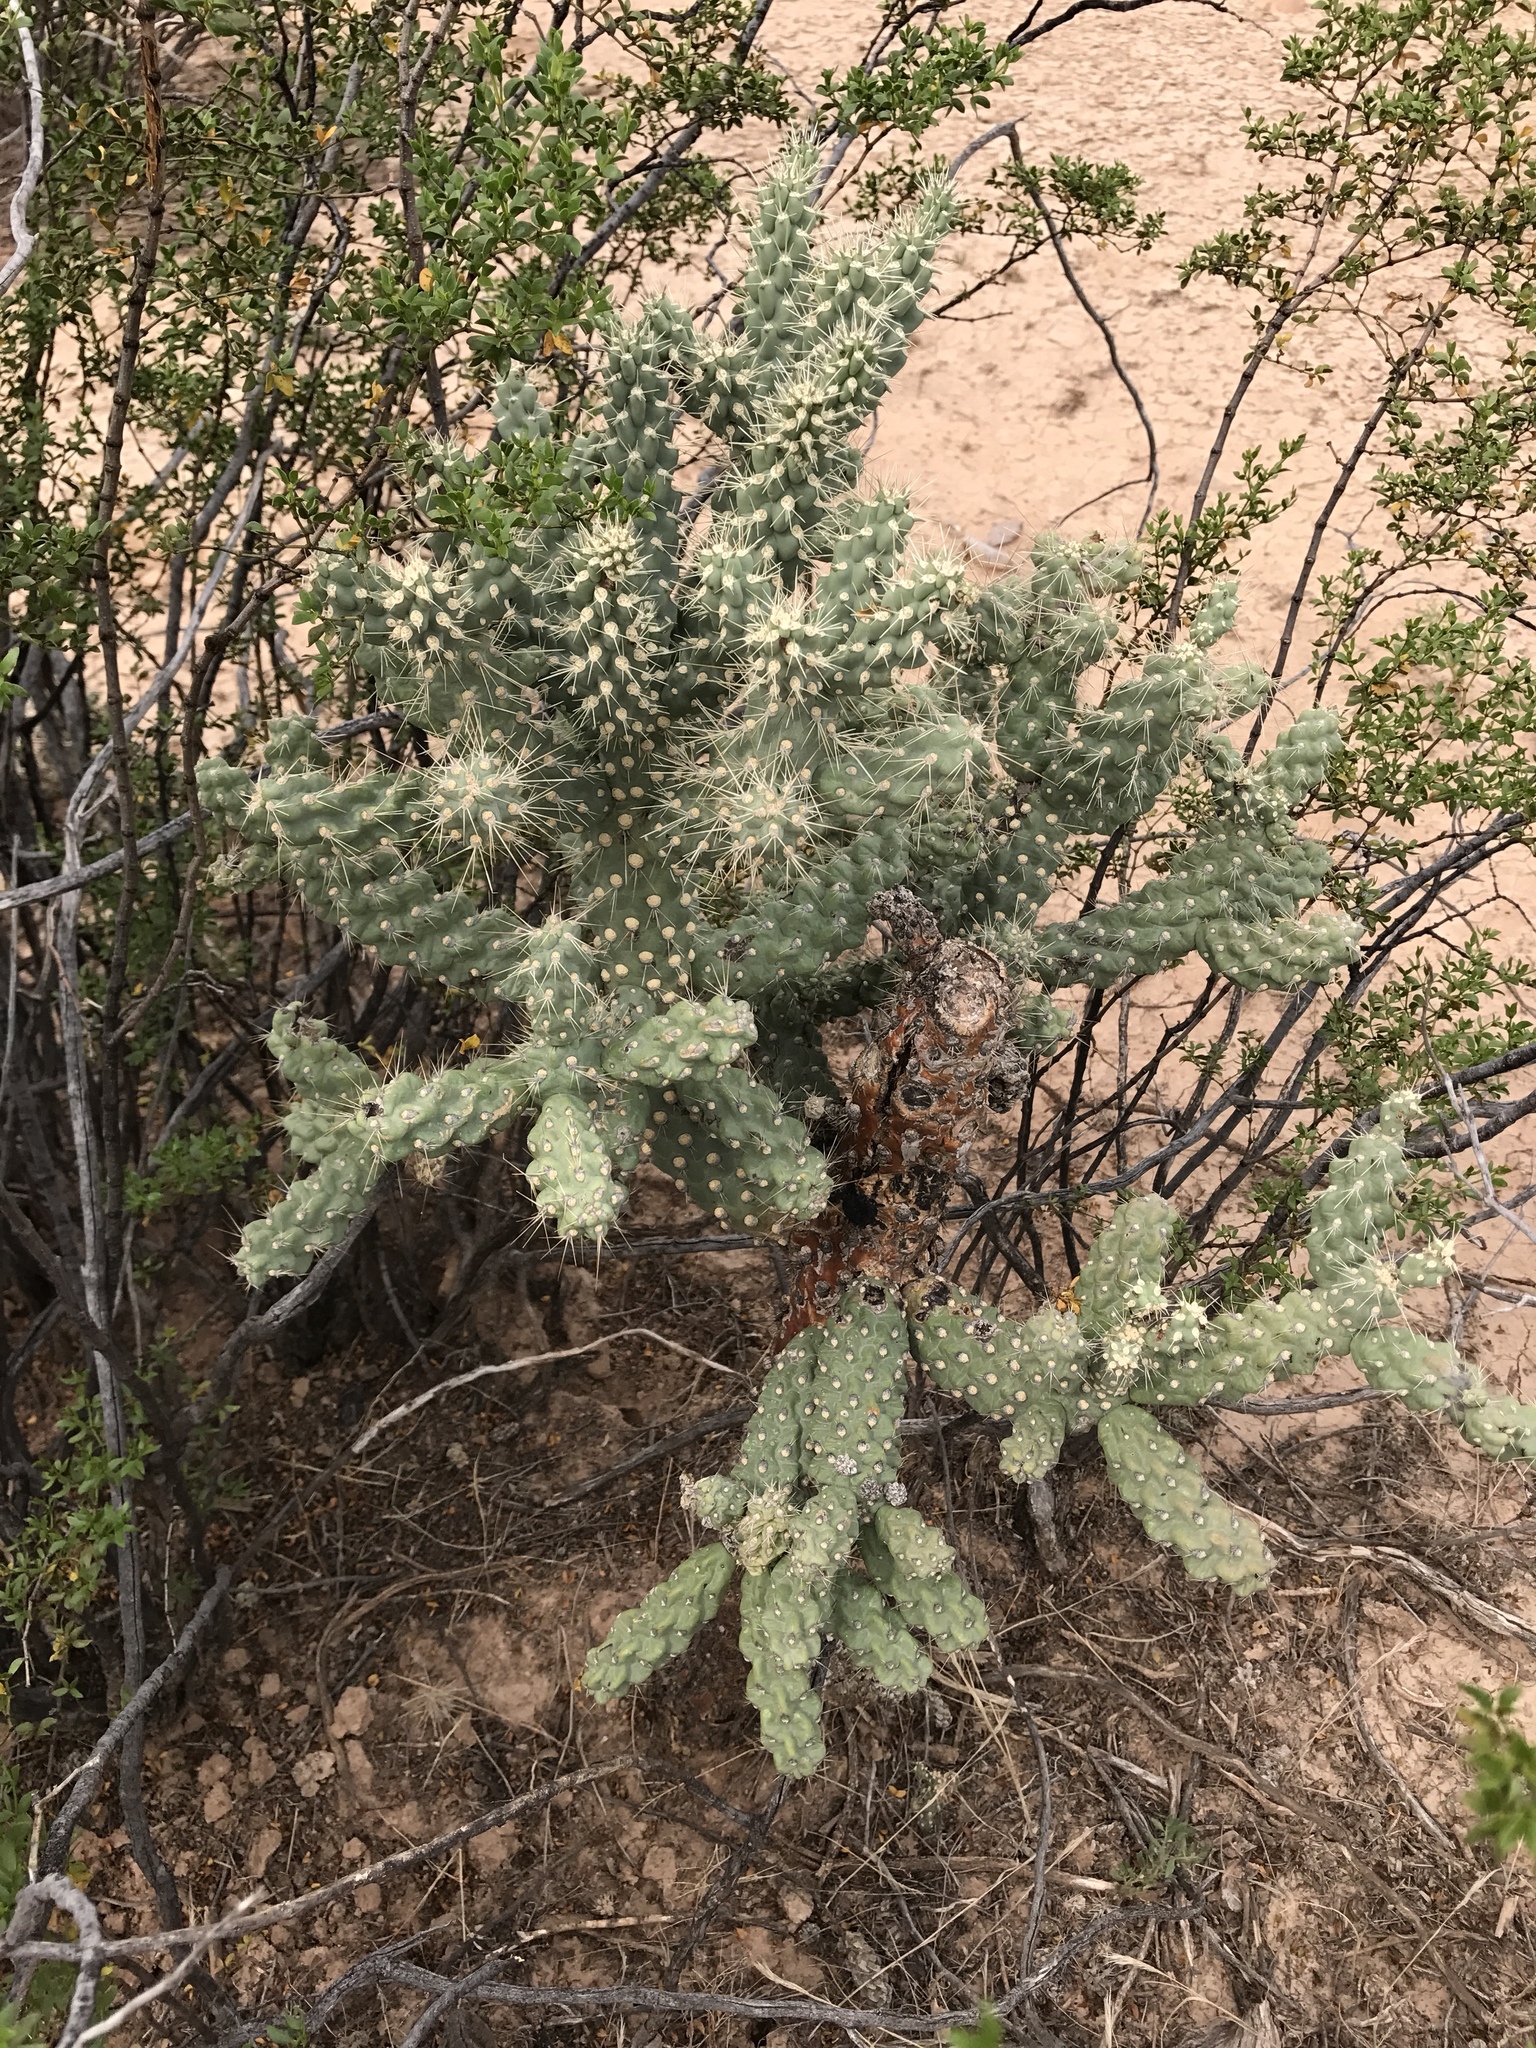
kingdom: Plantae
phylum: Tracheophyta
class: Magnoliopsida
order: Caryophyllales
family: Cactaceae
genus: Cylindropuntia
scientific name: Cylindropuntia fulgida
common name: Jumping cholla
